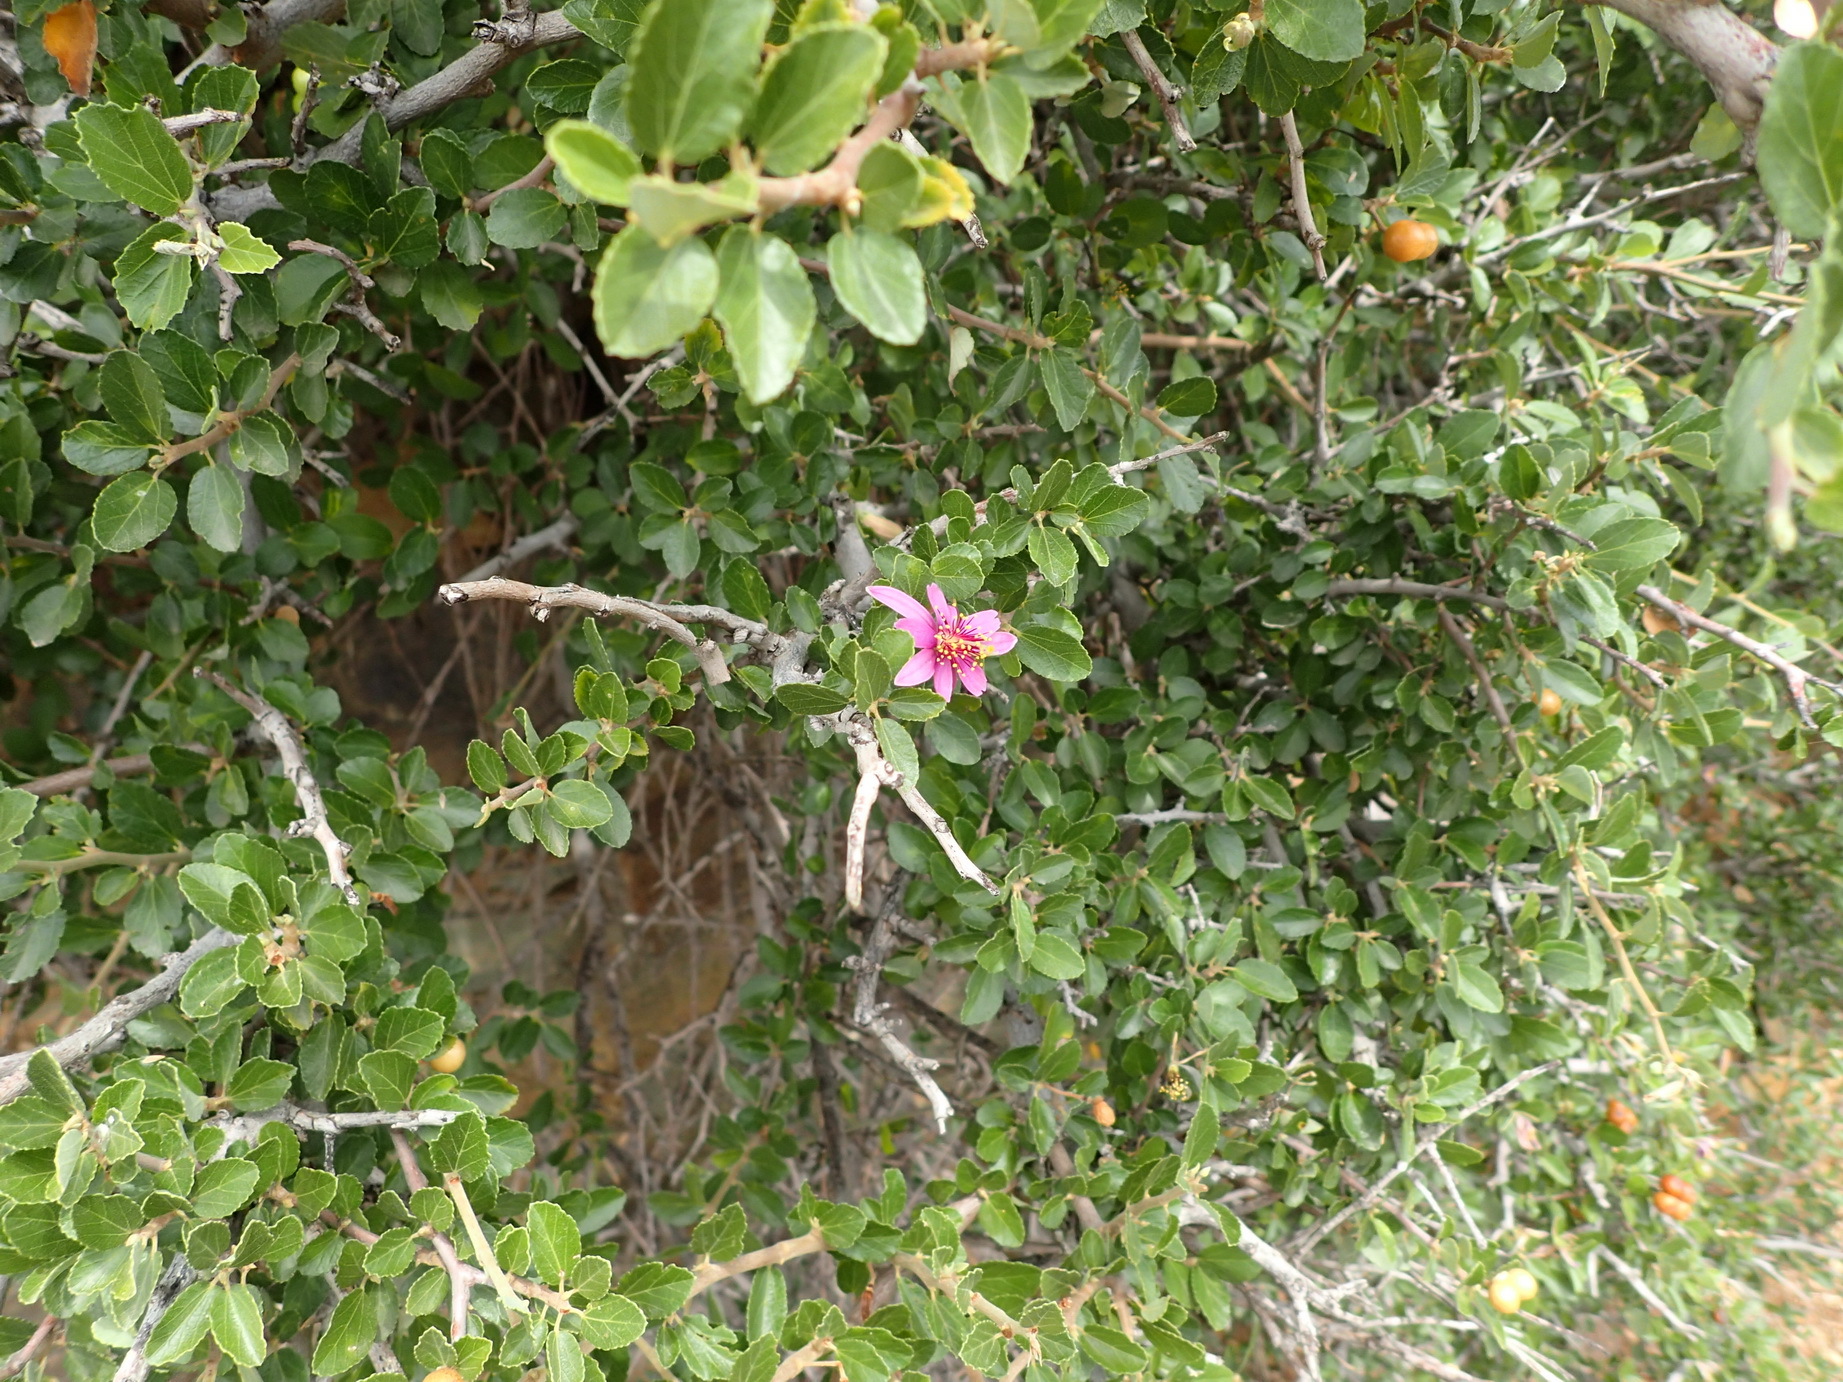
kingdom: Plantae
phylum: Tracheophyta
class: Magnoliopsida
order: Malvales
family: Malvaceae
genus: Grewia
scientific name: Grewia robusta
